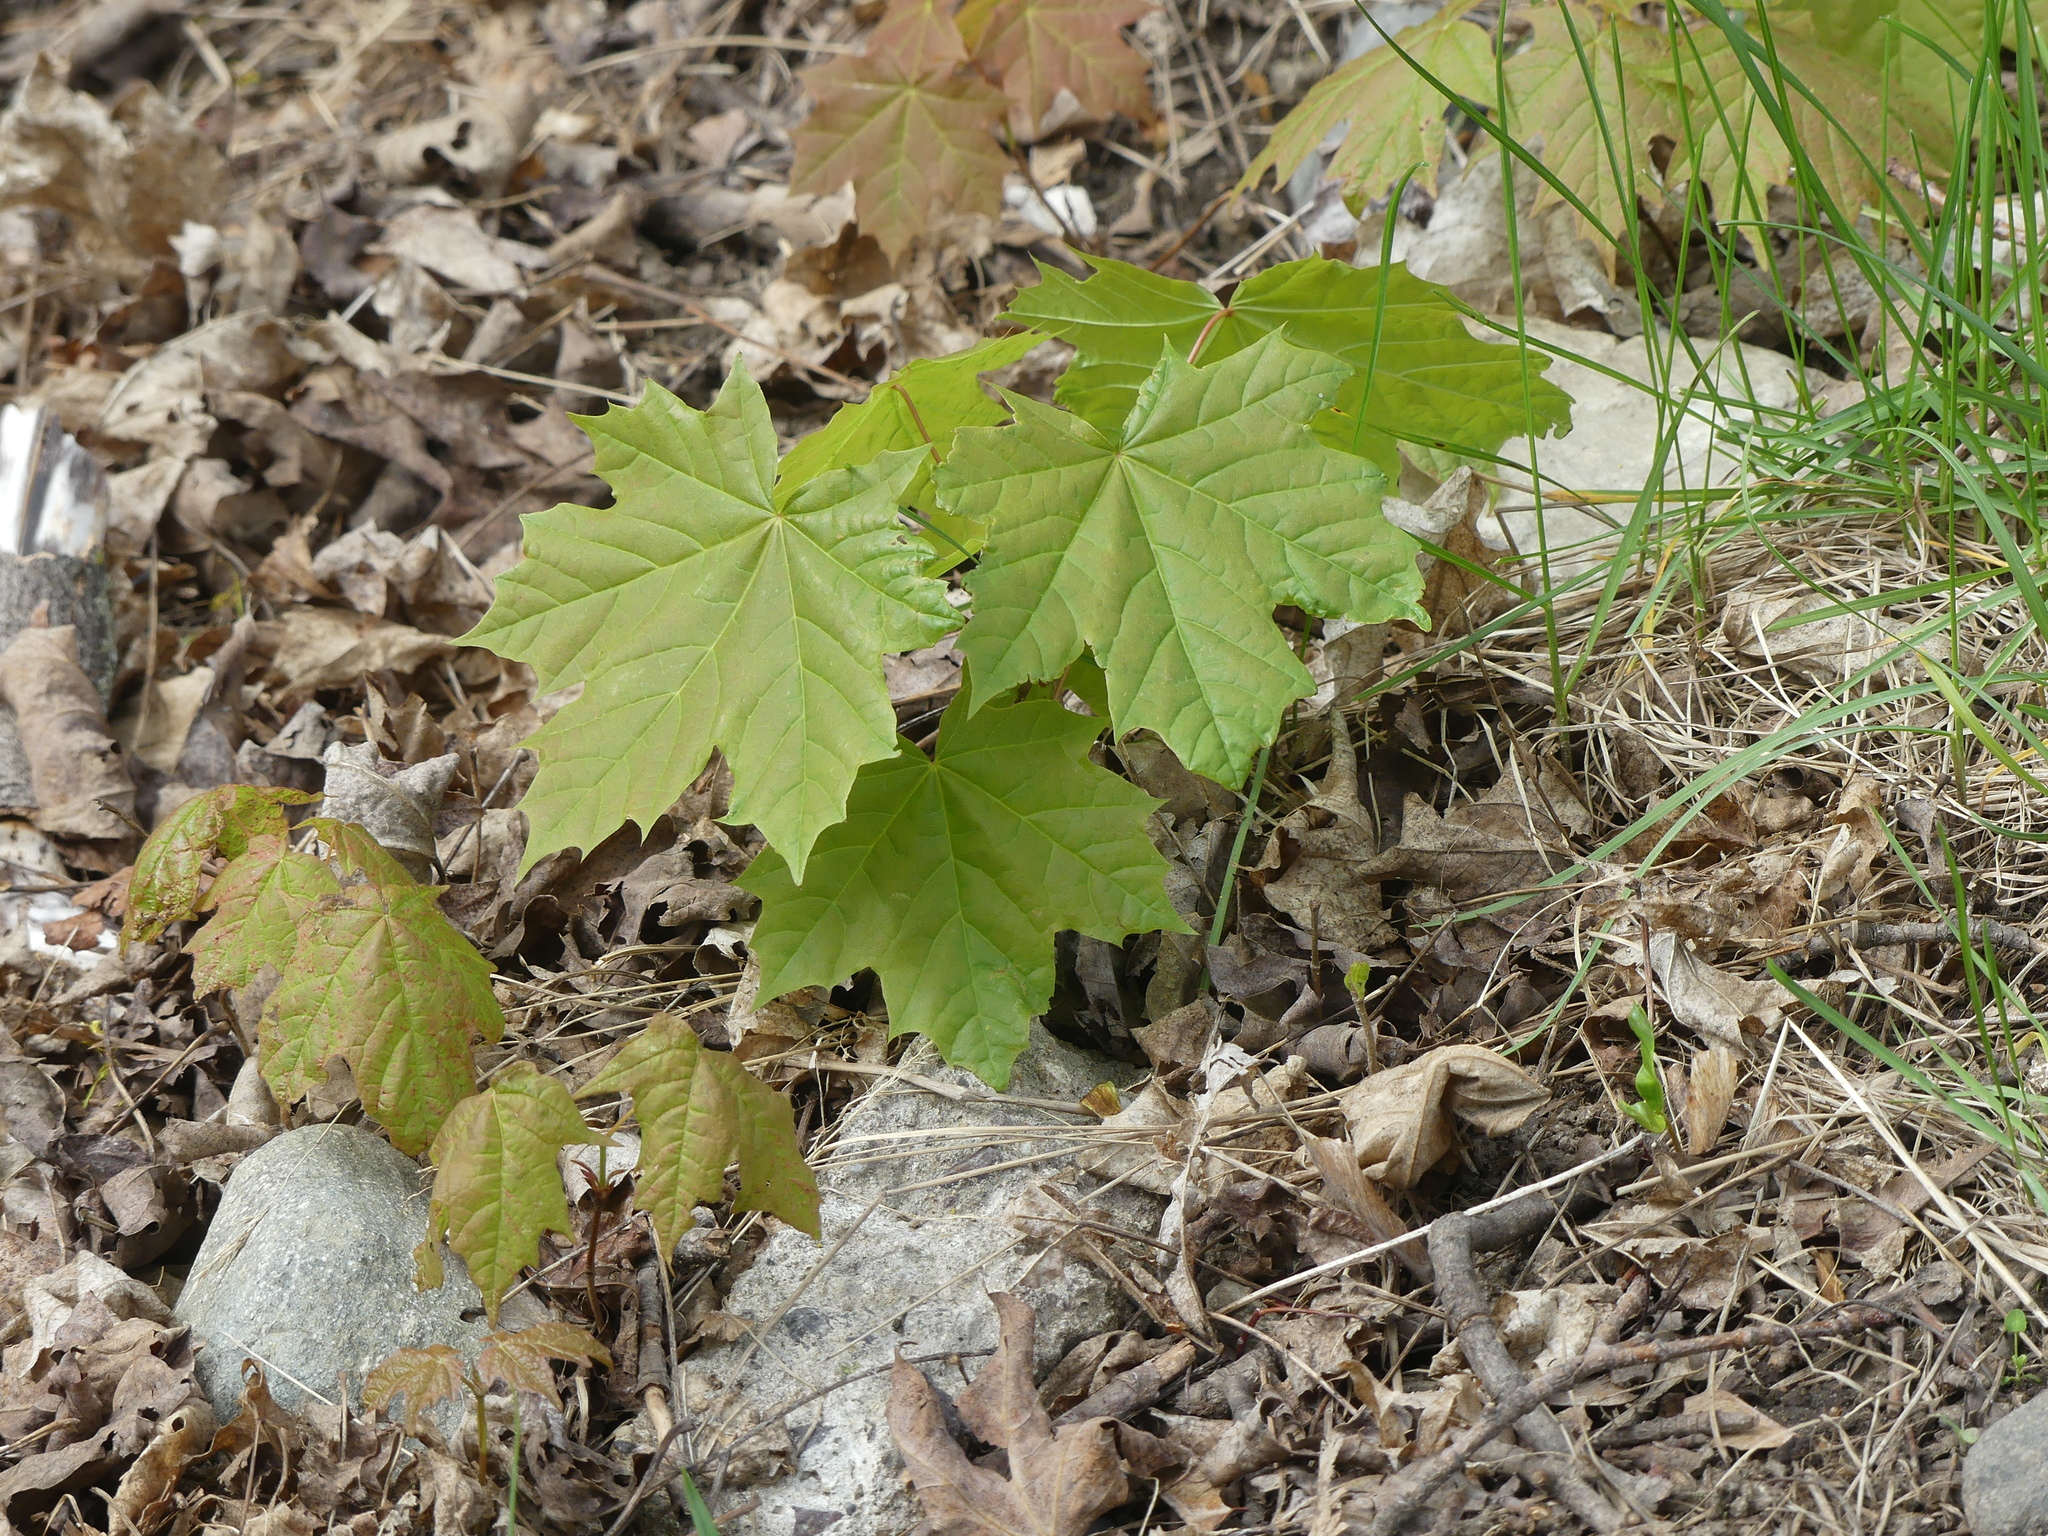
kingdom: Plantae
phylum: Tracheophyta
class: Magnoliopsida
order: Sapindales
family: Sapindaceae
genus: Acer
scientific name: Acer platanoides
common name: Norway maple
